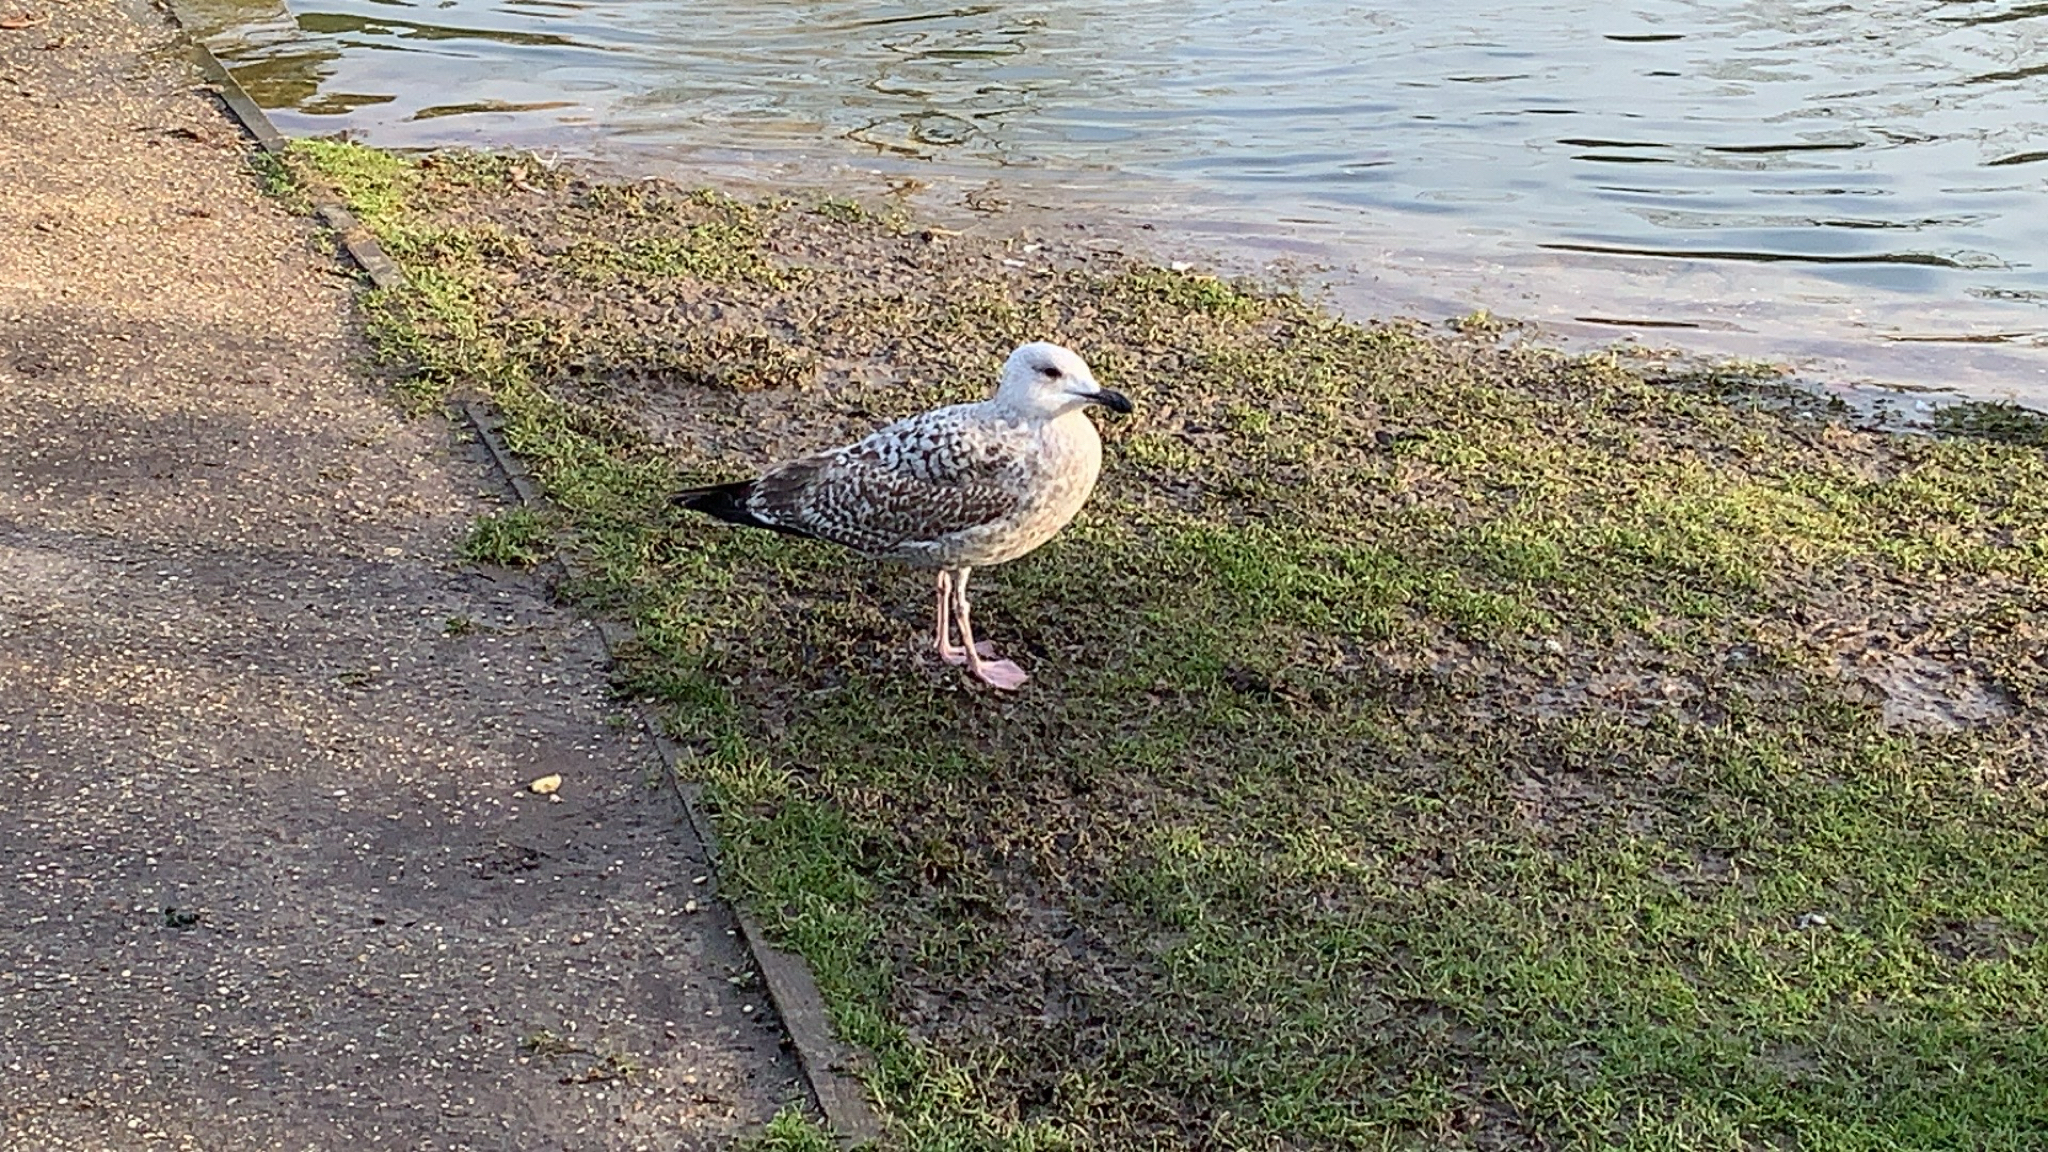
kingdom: Animalia
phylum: Chordata
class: Aves
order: Charadriiformes
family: Laridae
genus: Larus
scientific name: Larus argentatus
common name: Herring gull
